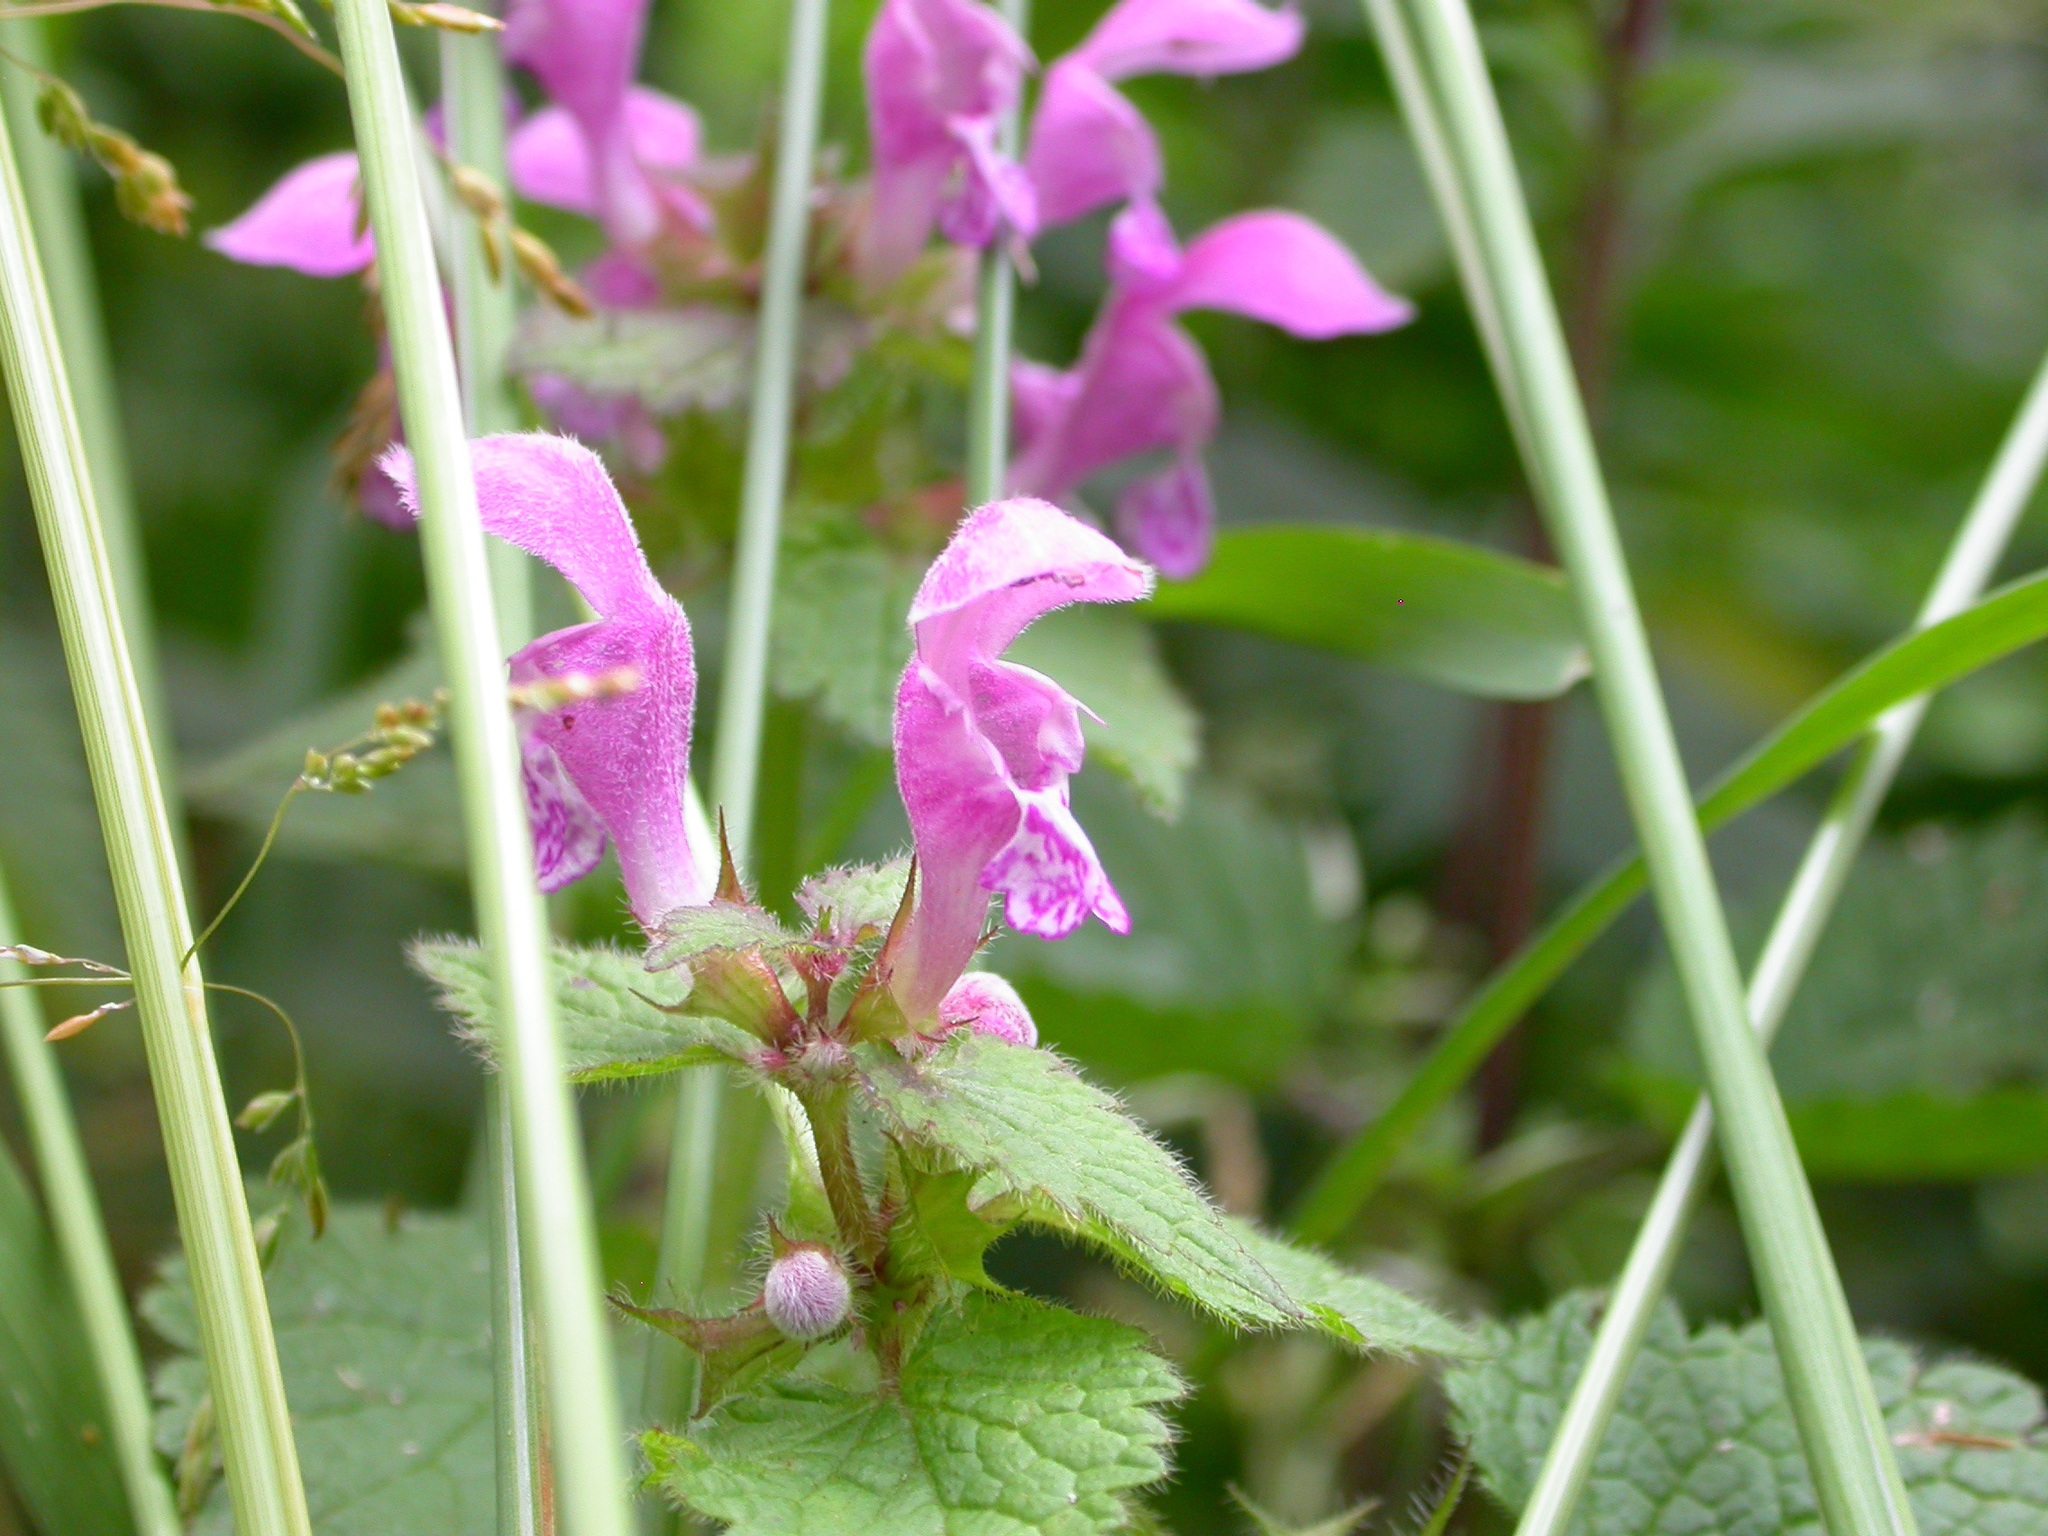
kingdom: Plantae
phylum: Tracheophyta
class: Magnoliopsida
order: Lamiales
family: Lamiaceae
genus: Lamium
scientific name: Lamium maculatum
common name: Spotted dead-nettle
